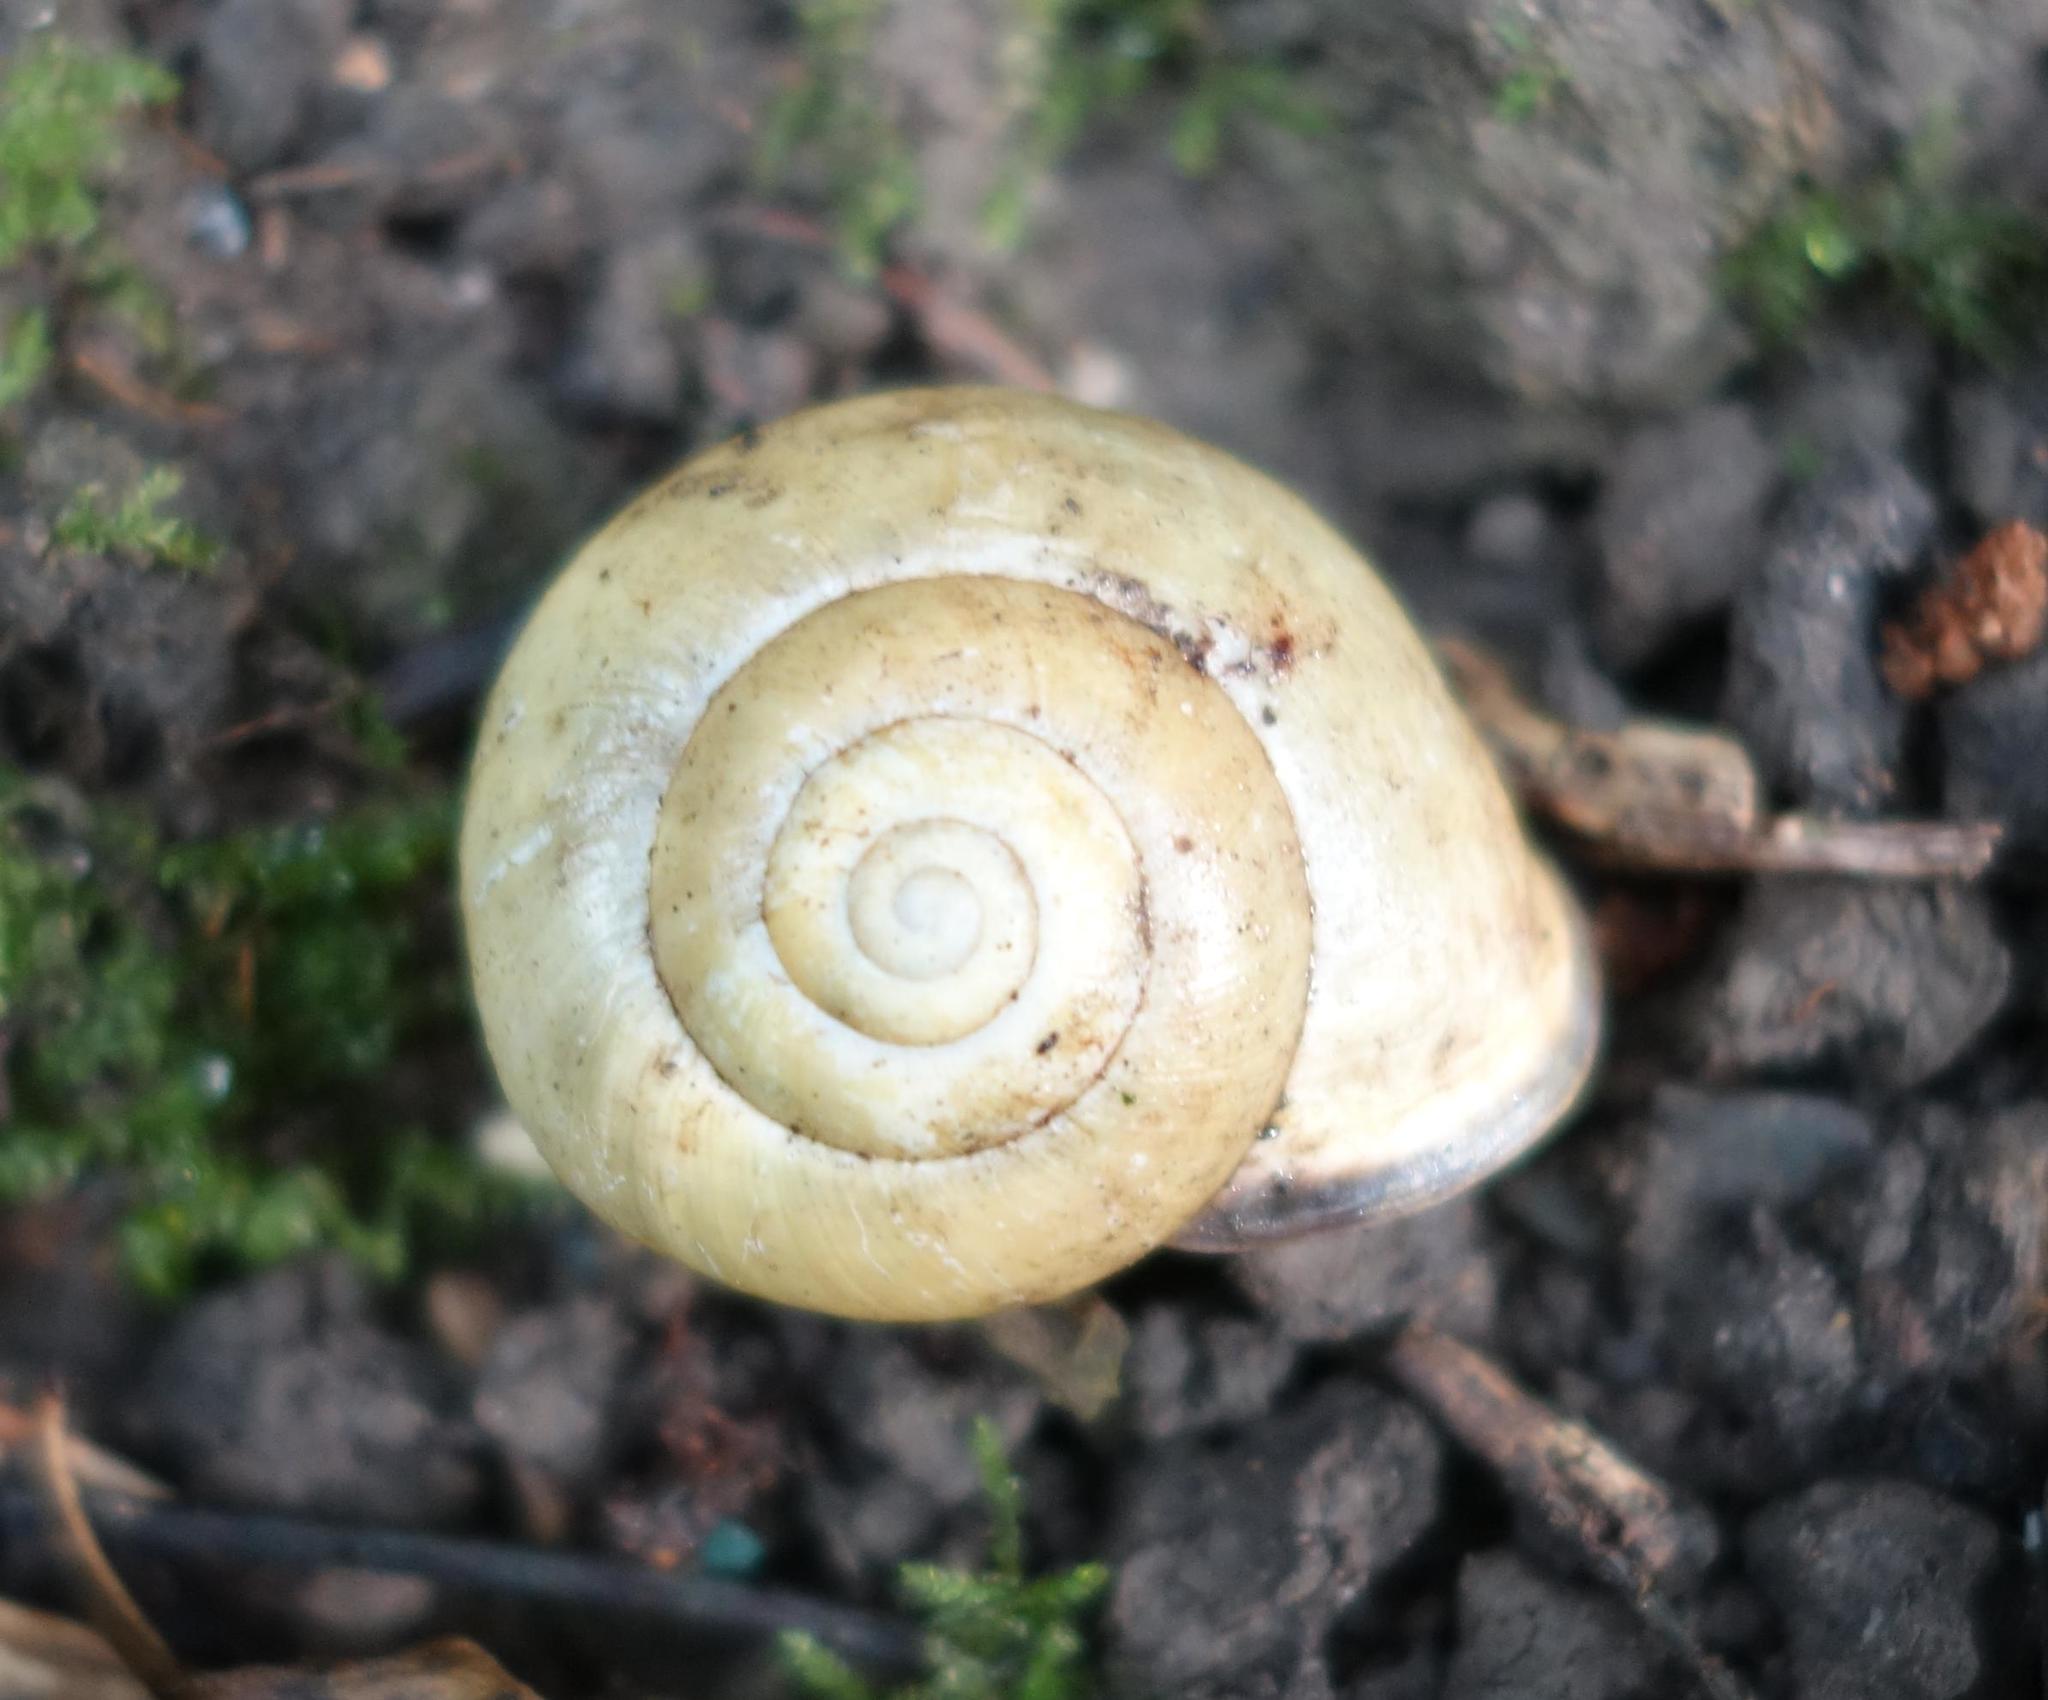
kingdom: Animalia
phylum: Mollusca
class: Gastropoda
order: Stylommatophora
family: Helicidae
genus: Cepaea
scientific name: Cepaea nemoralis
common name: Grovesnail
